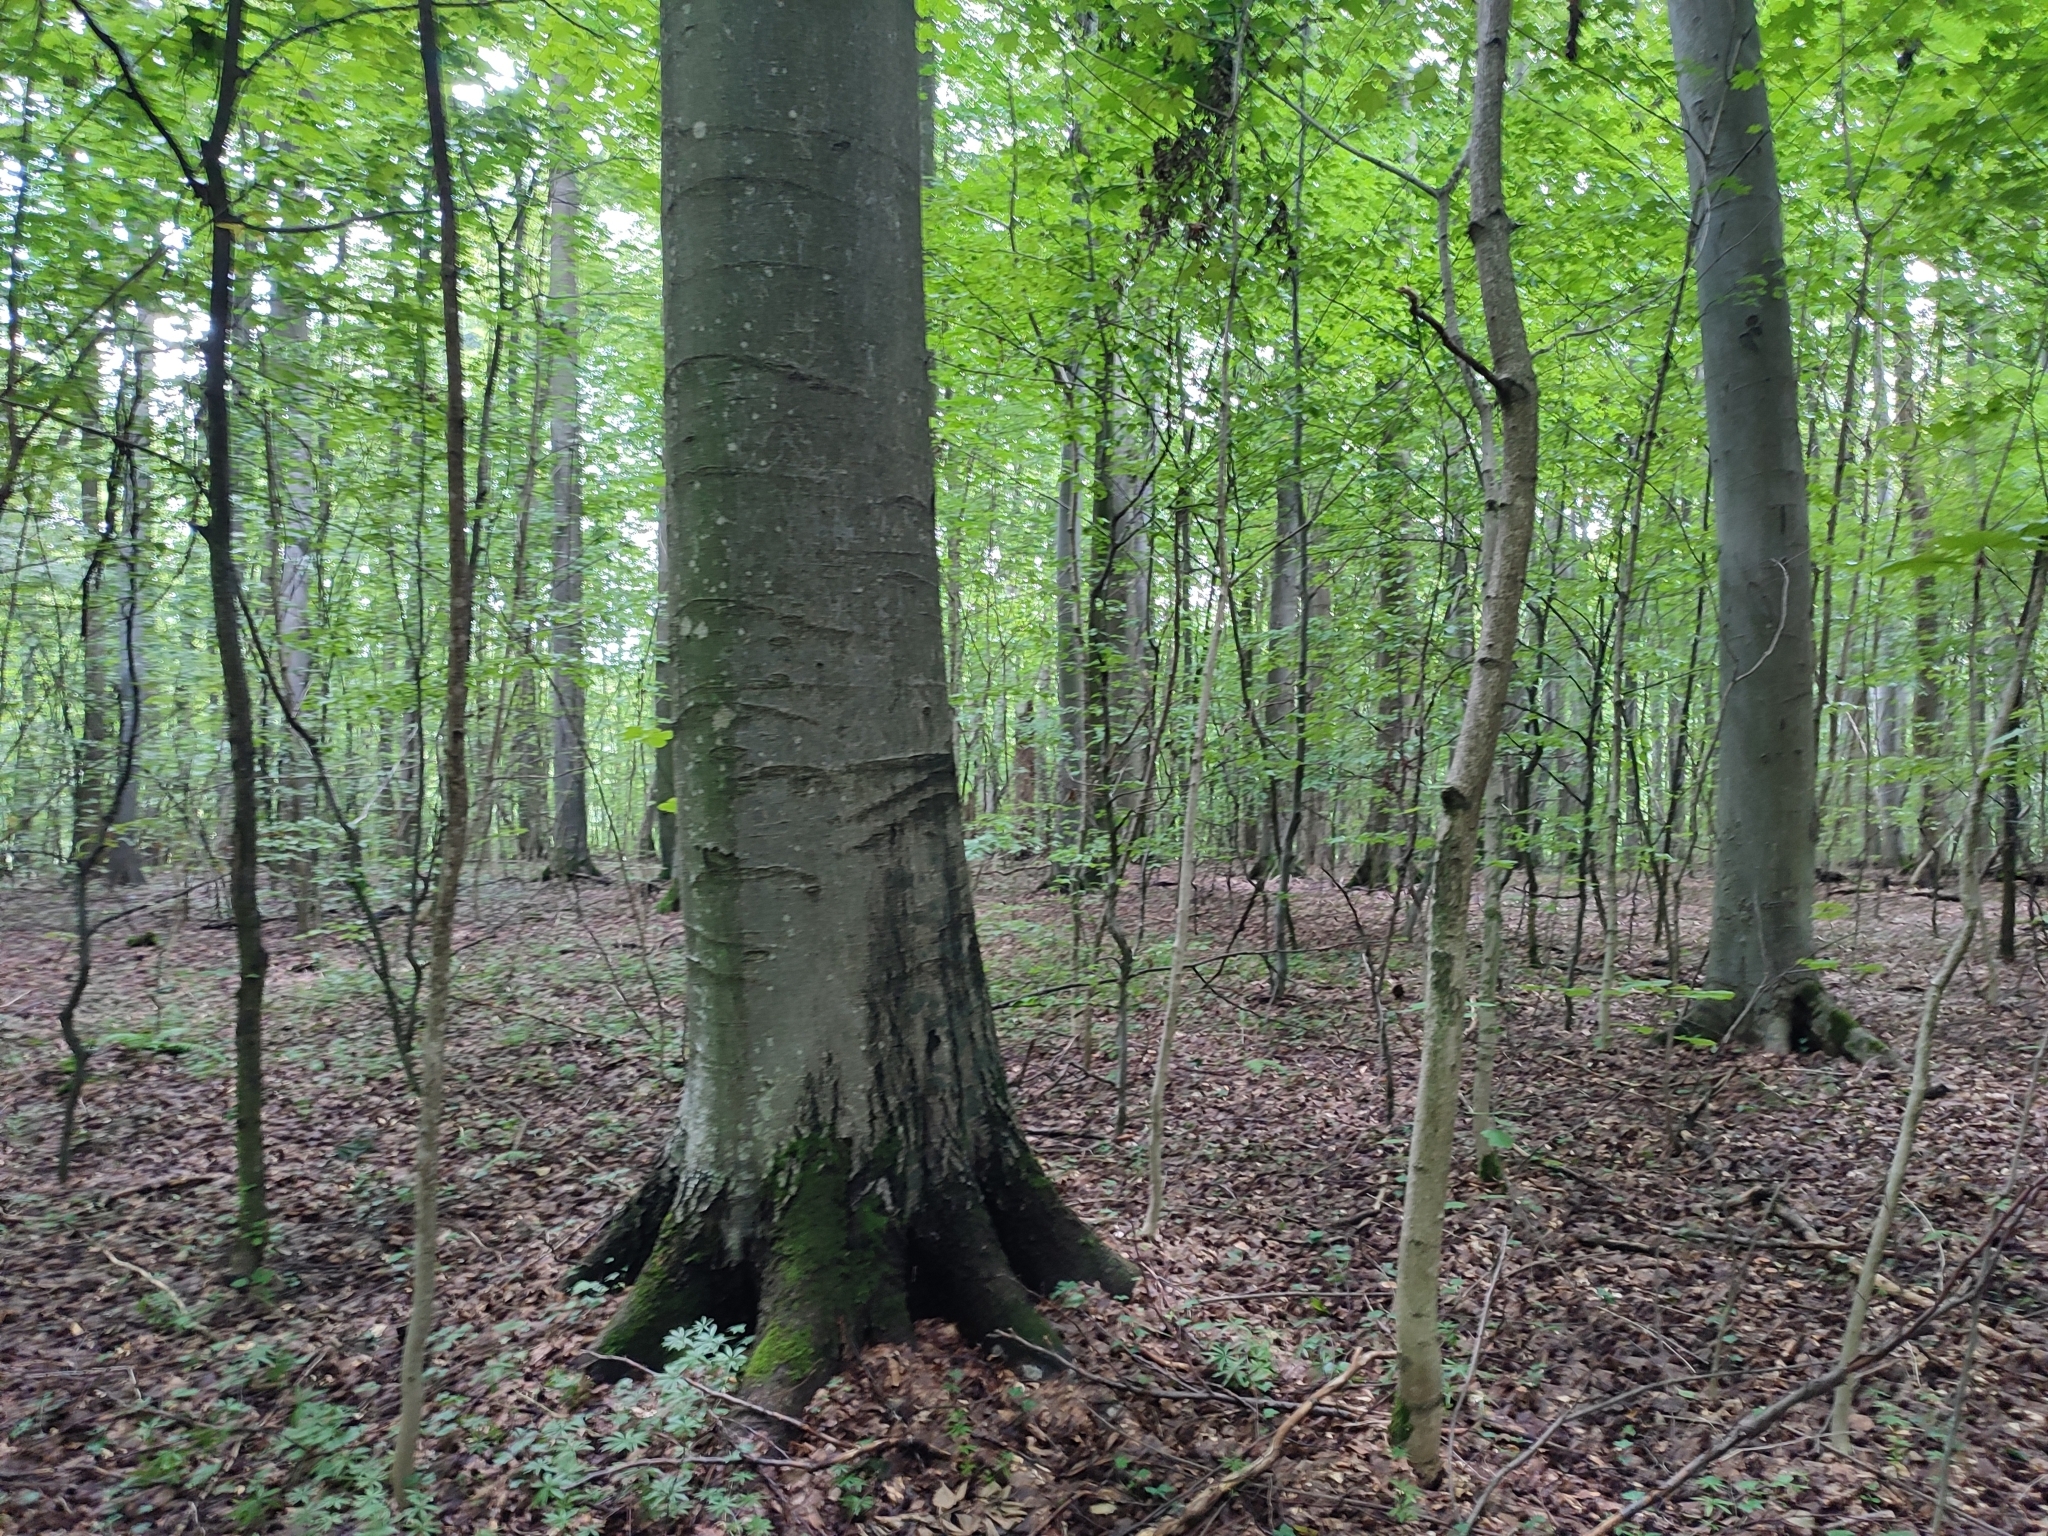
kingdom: Plantae
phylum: Tracheophyta
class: Magnoliopsida
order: Fagales
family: Fagaceae
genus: Fagus
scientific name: Fagus sylvatica
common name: Beech
